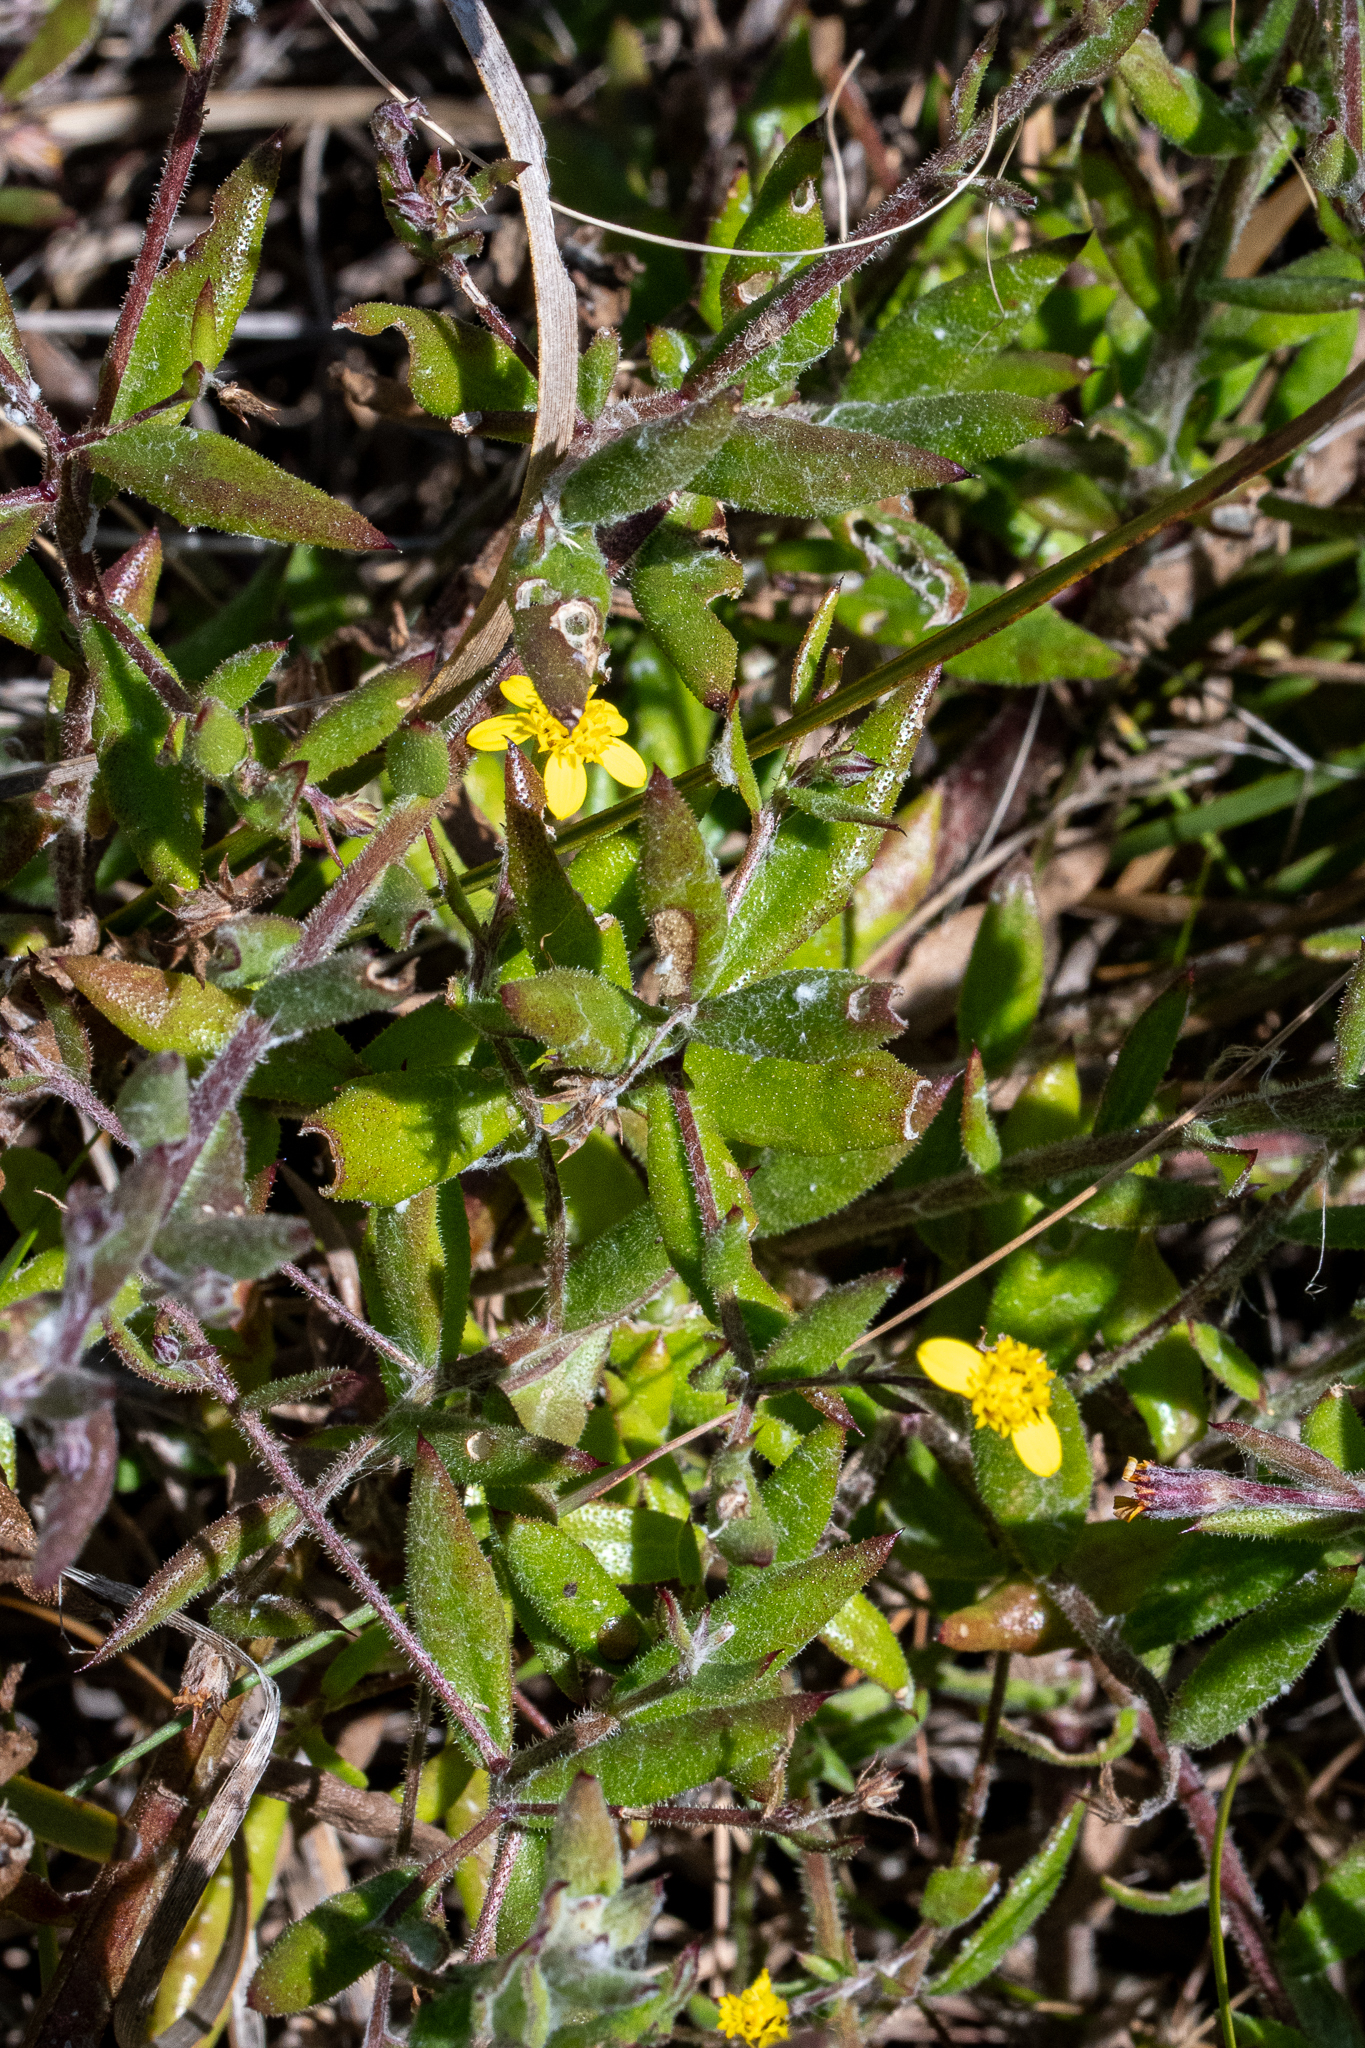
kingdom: Plantae
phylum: Tracheophyta
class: Magnoliopsida
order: Asterales
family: Asteraceae
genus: Osteospermum
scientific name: Osteospermum ciliatum
